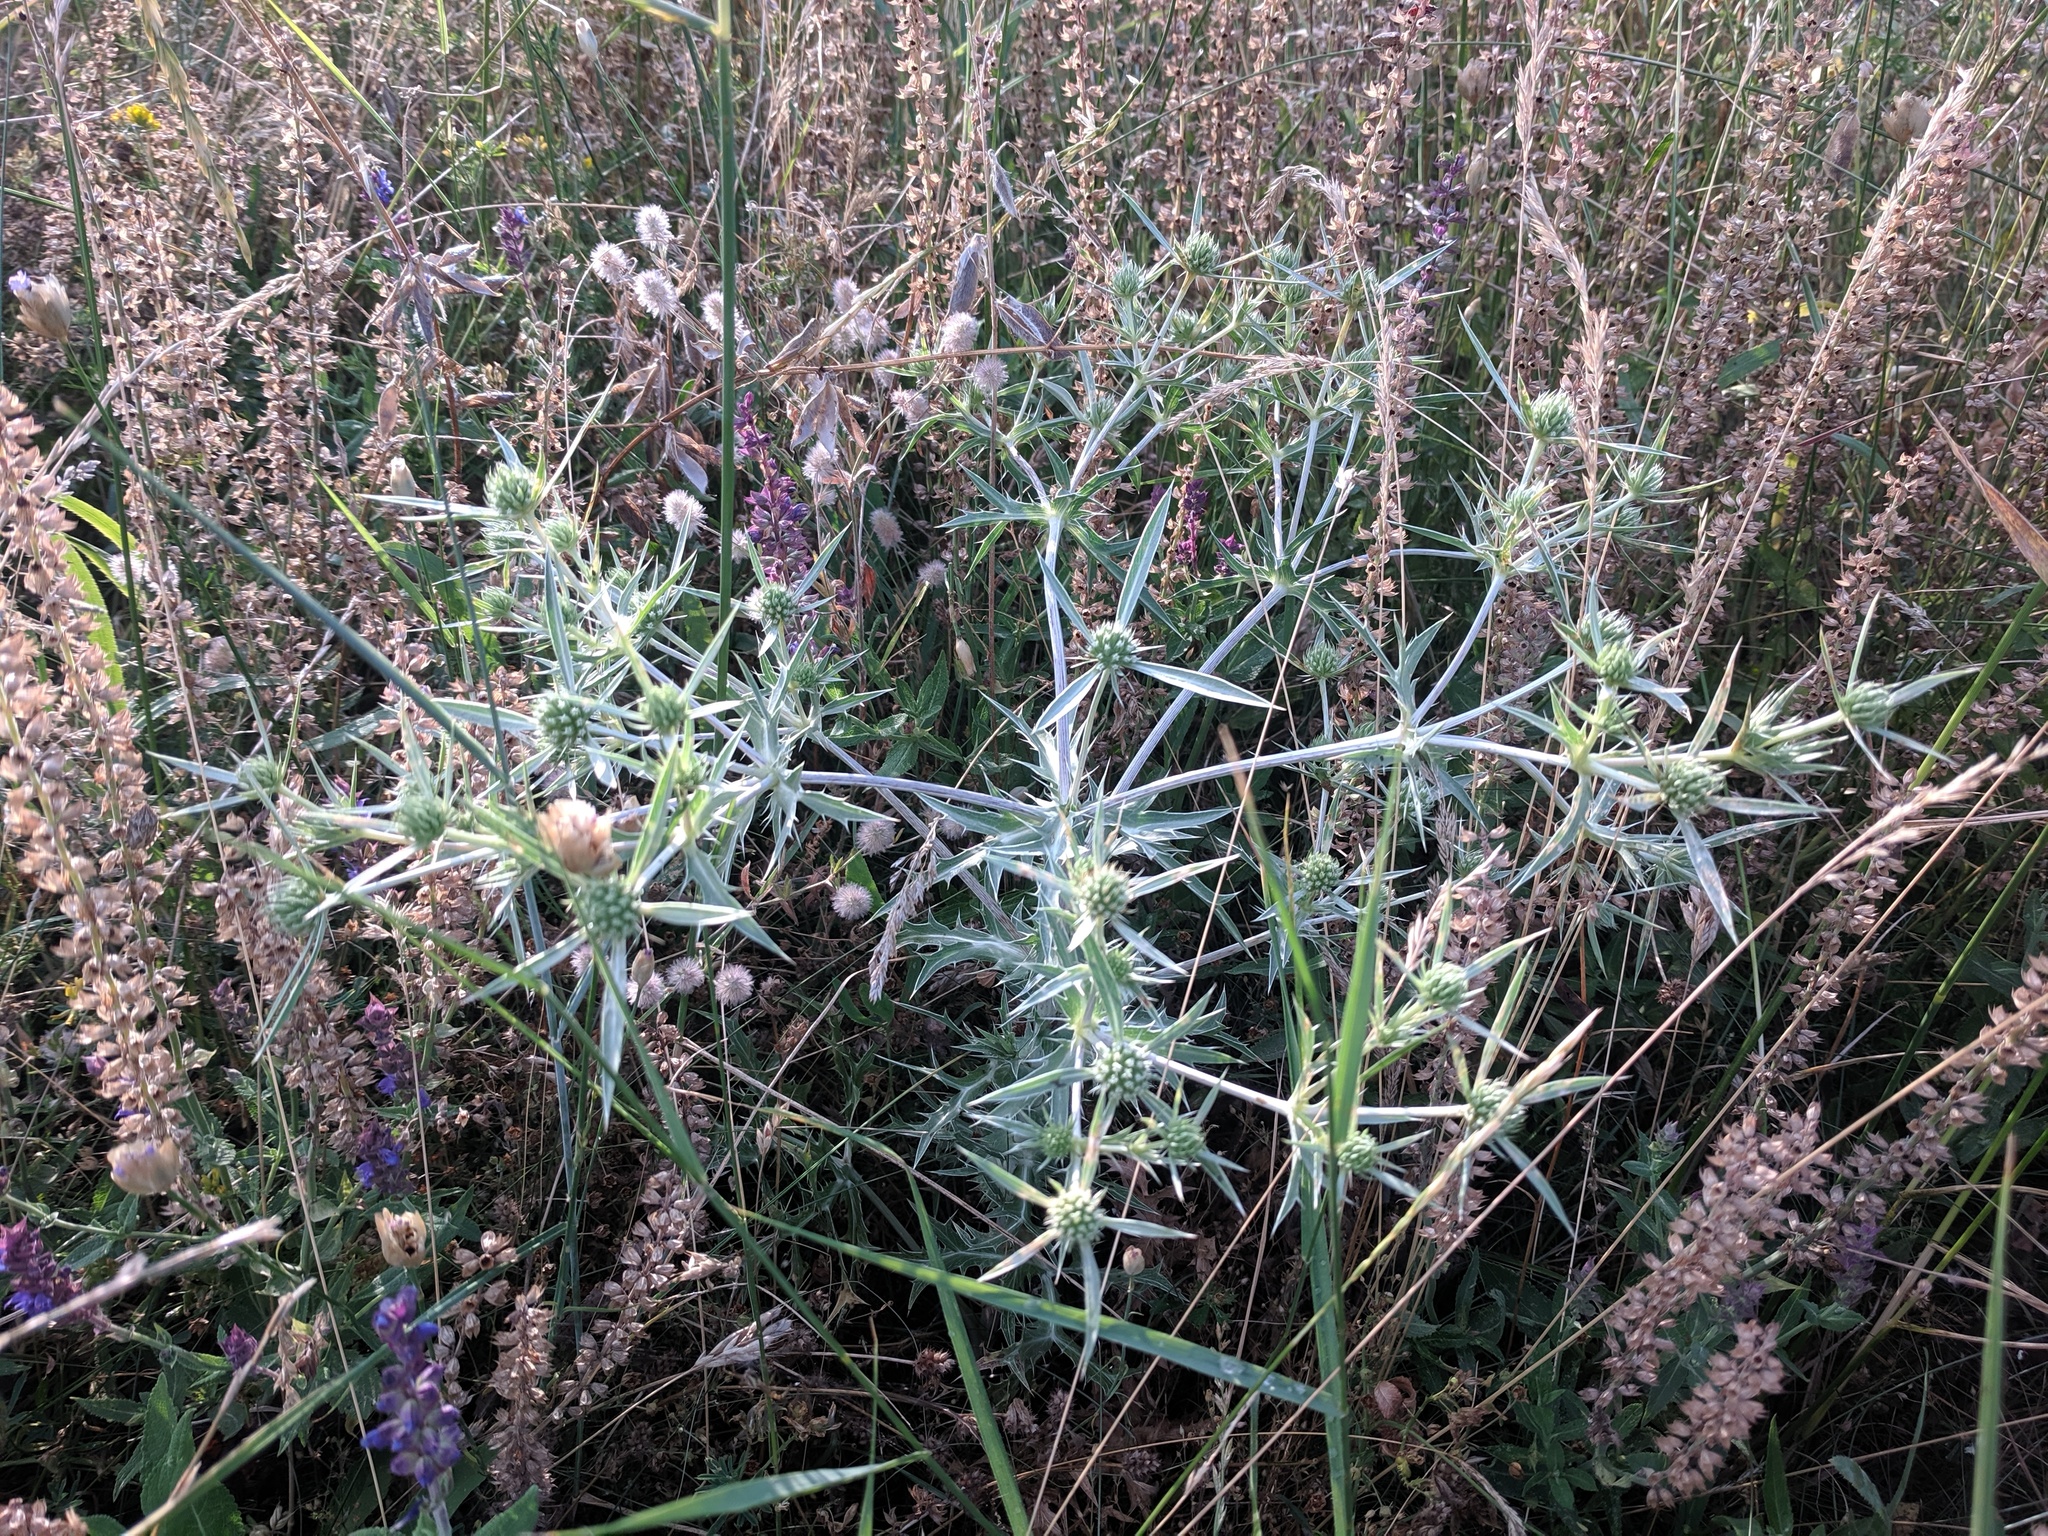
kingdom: Plantae
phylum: Tracheophyta
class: Magnoliopsida
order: Apiales
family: Apiaceae
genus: Eryngium
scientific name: Eryngium campestre
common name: Field eryngo
